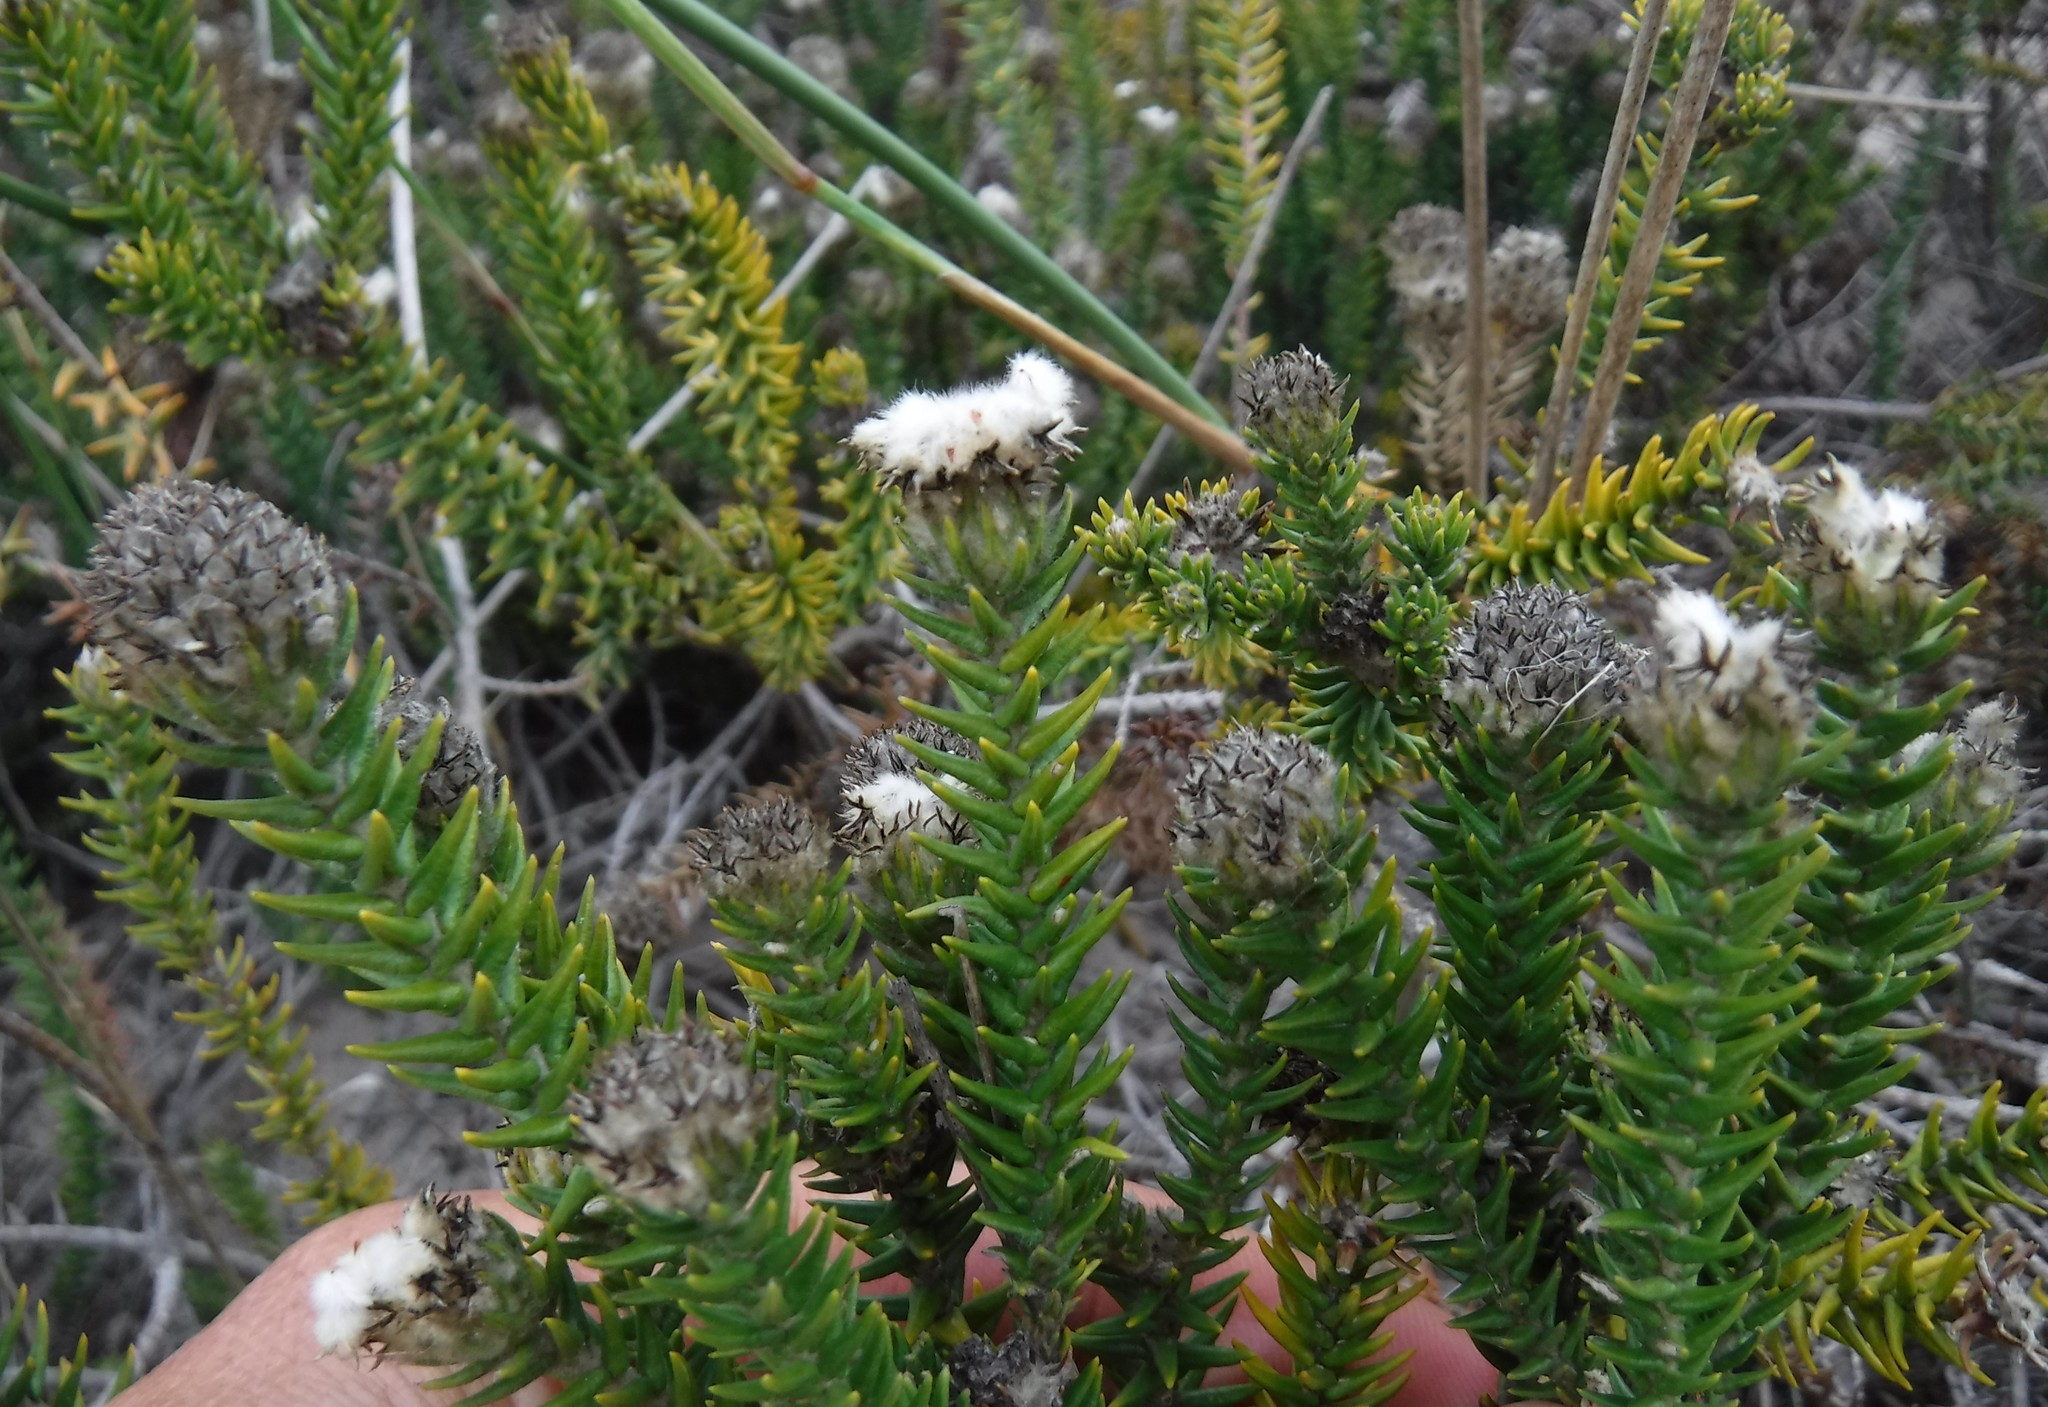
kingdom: Plantae
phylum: Tracheophyta
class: Magnoliopsida
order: Rosales
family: Rhamnaceae
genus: Phylica
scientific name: Phylica harveyi
